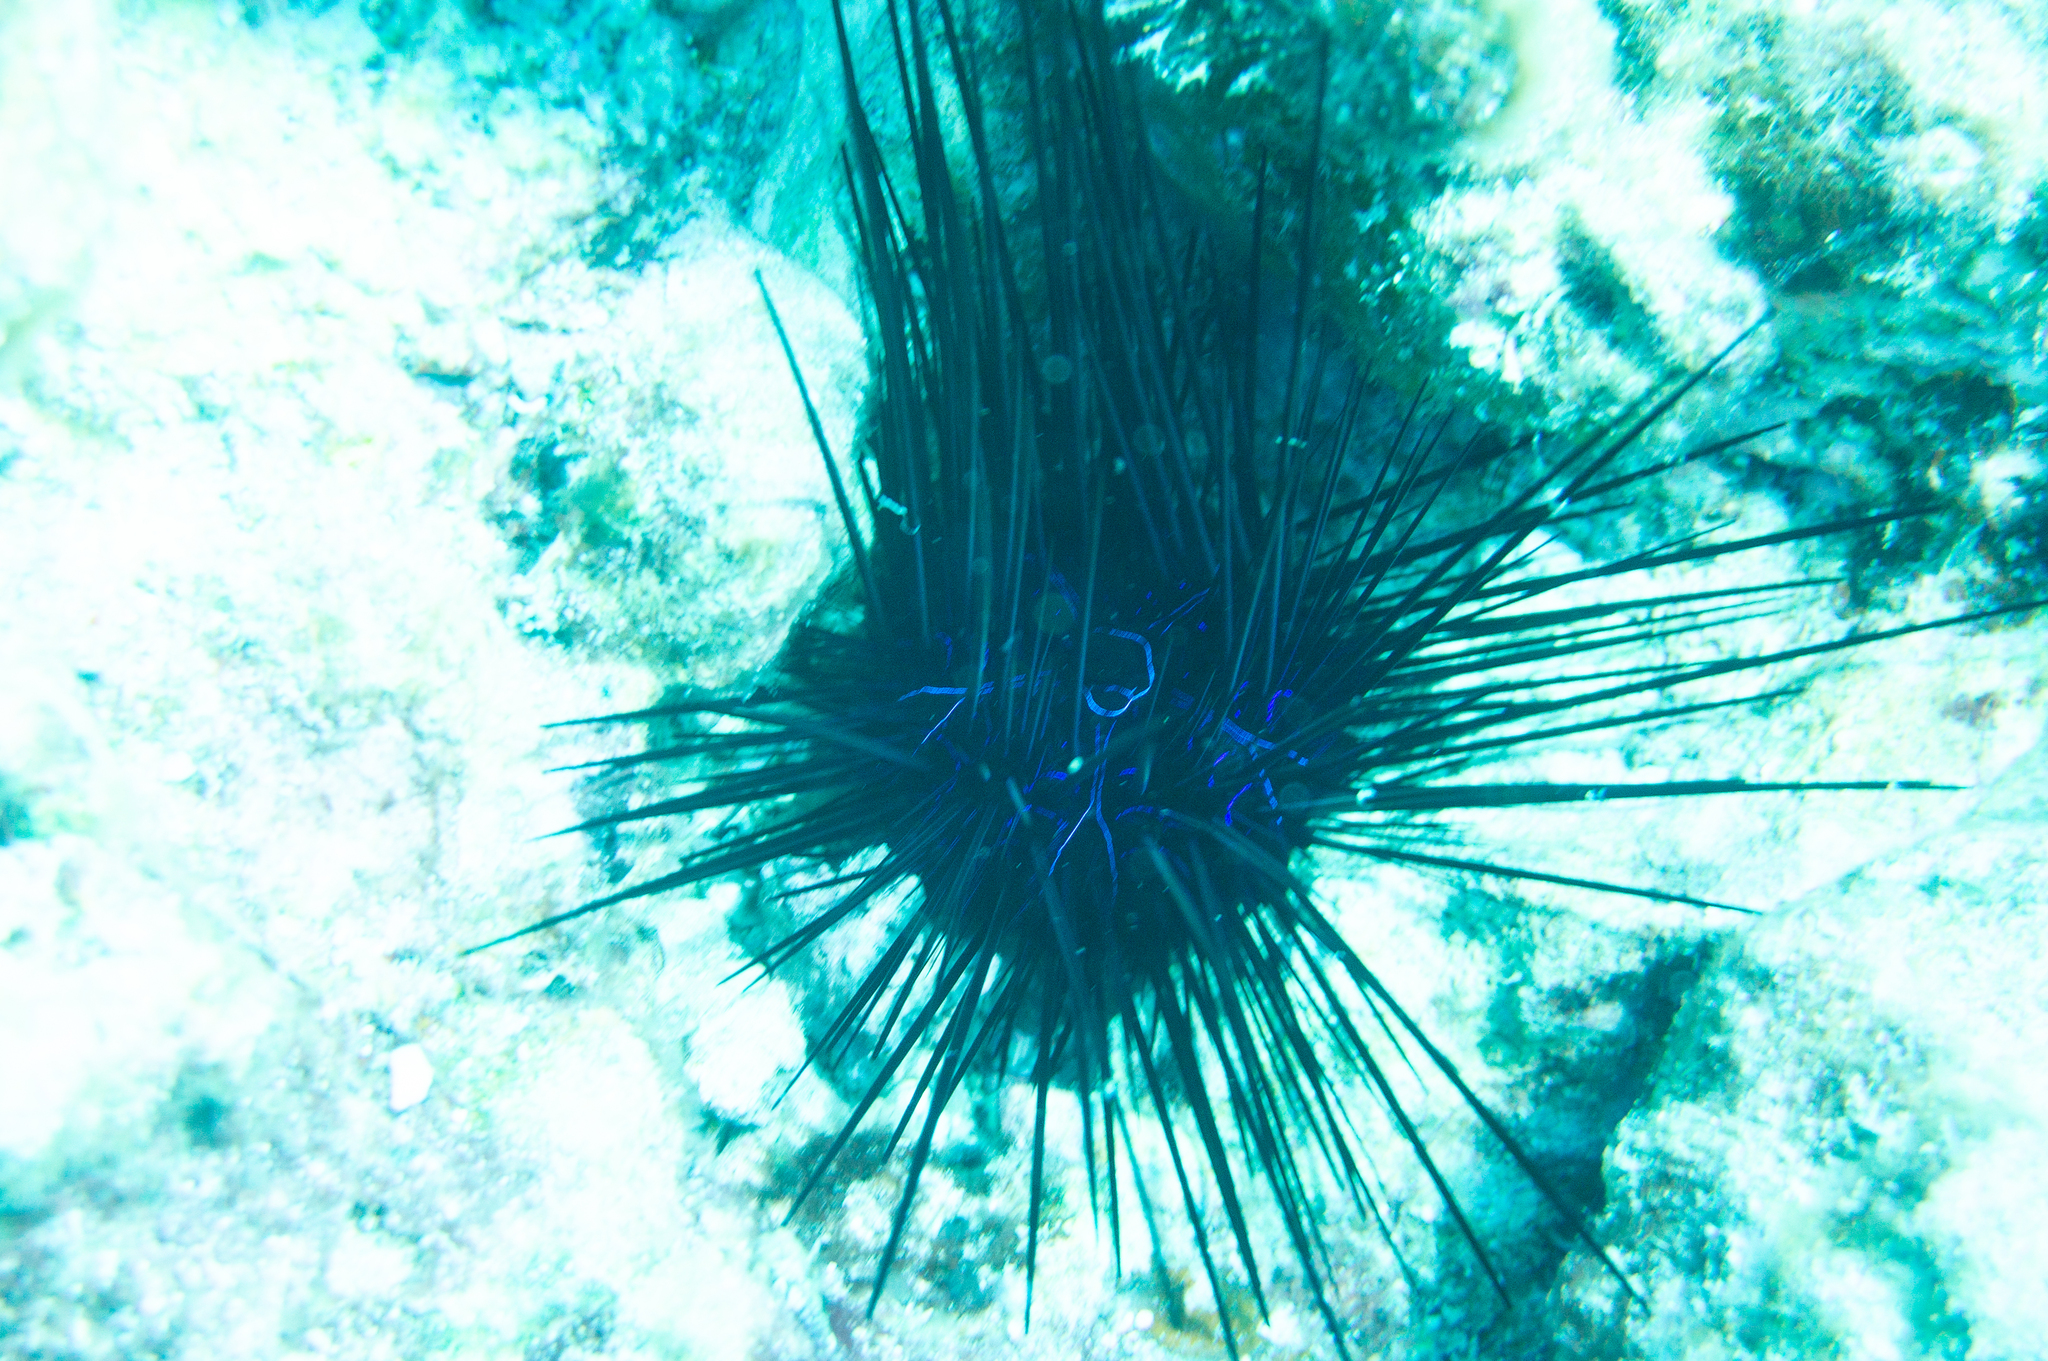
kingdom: Animalia
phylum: Echinodermata
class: Echinoidea
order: Diadematoida
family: Diadematidae
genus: Diadema
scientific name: Diadema savignyi
